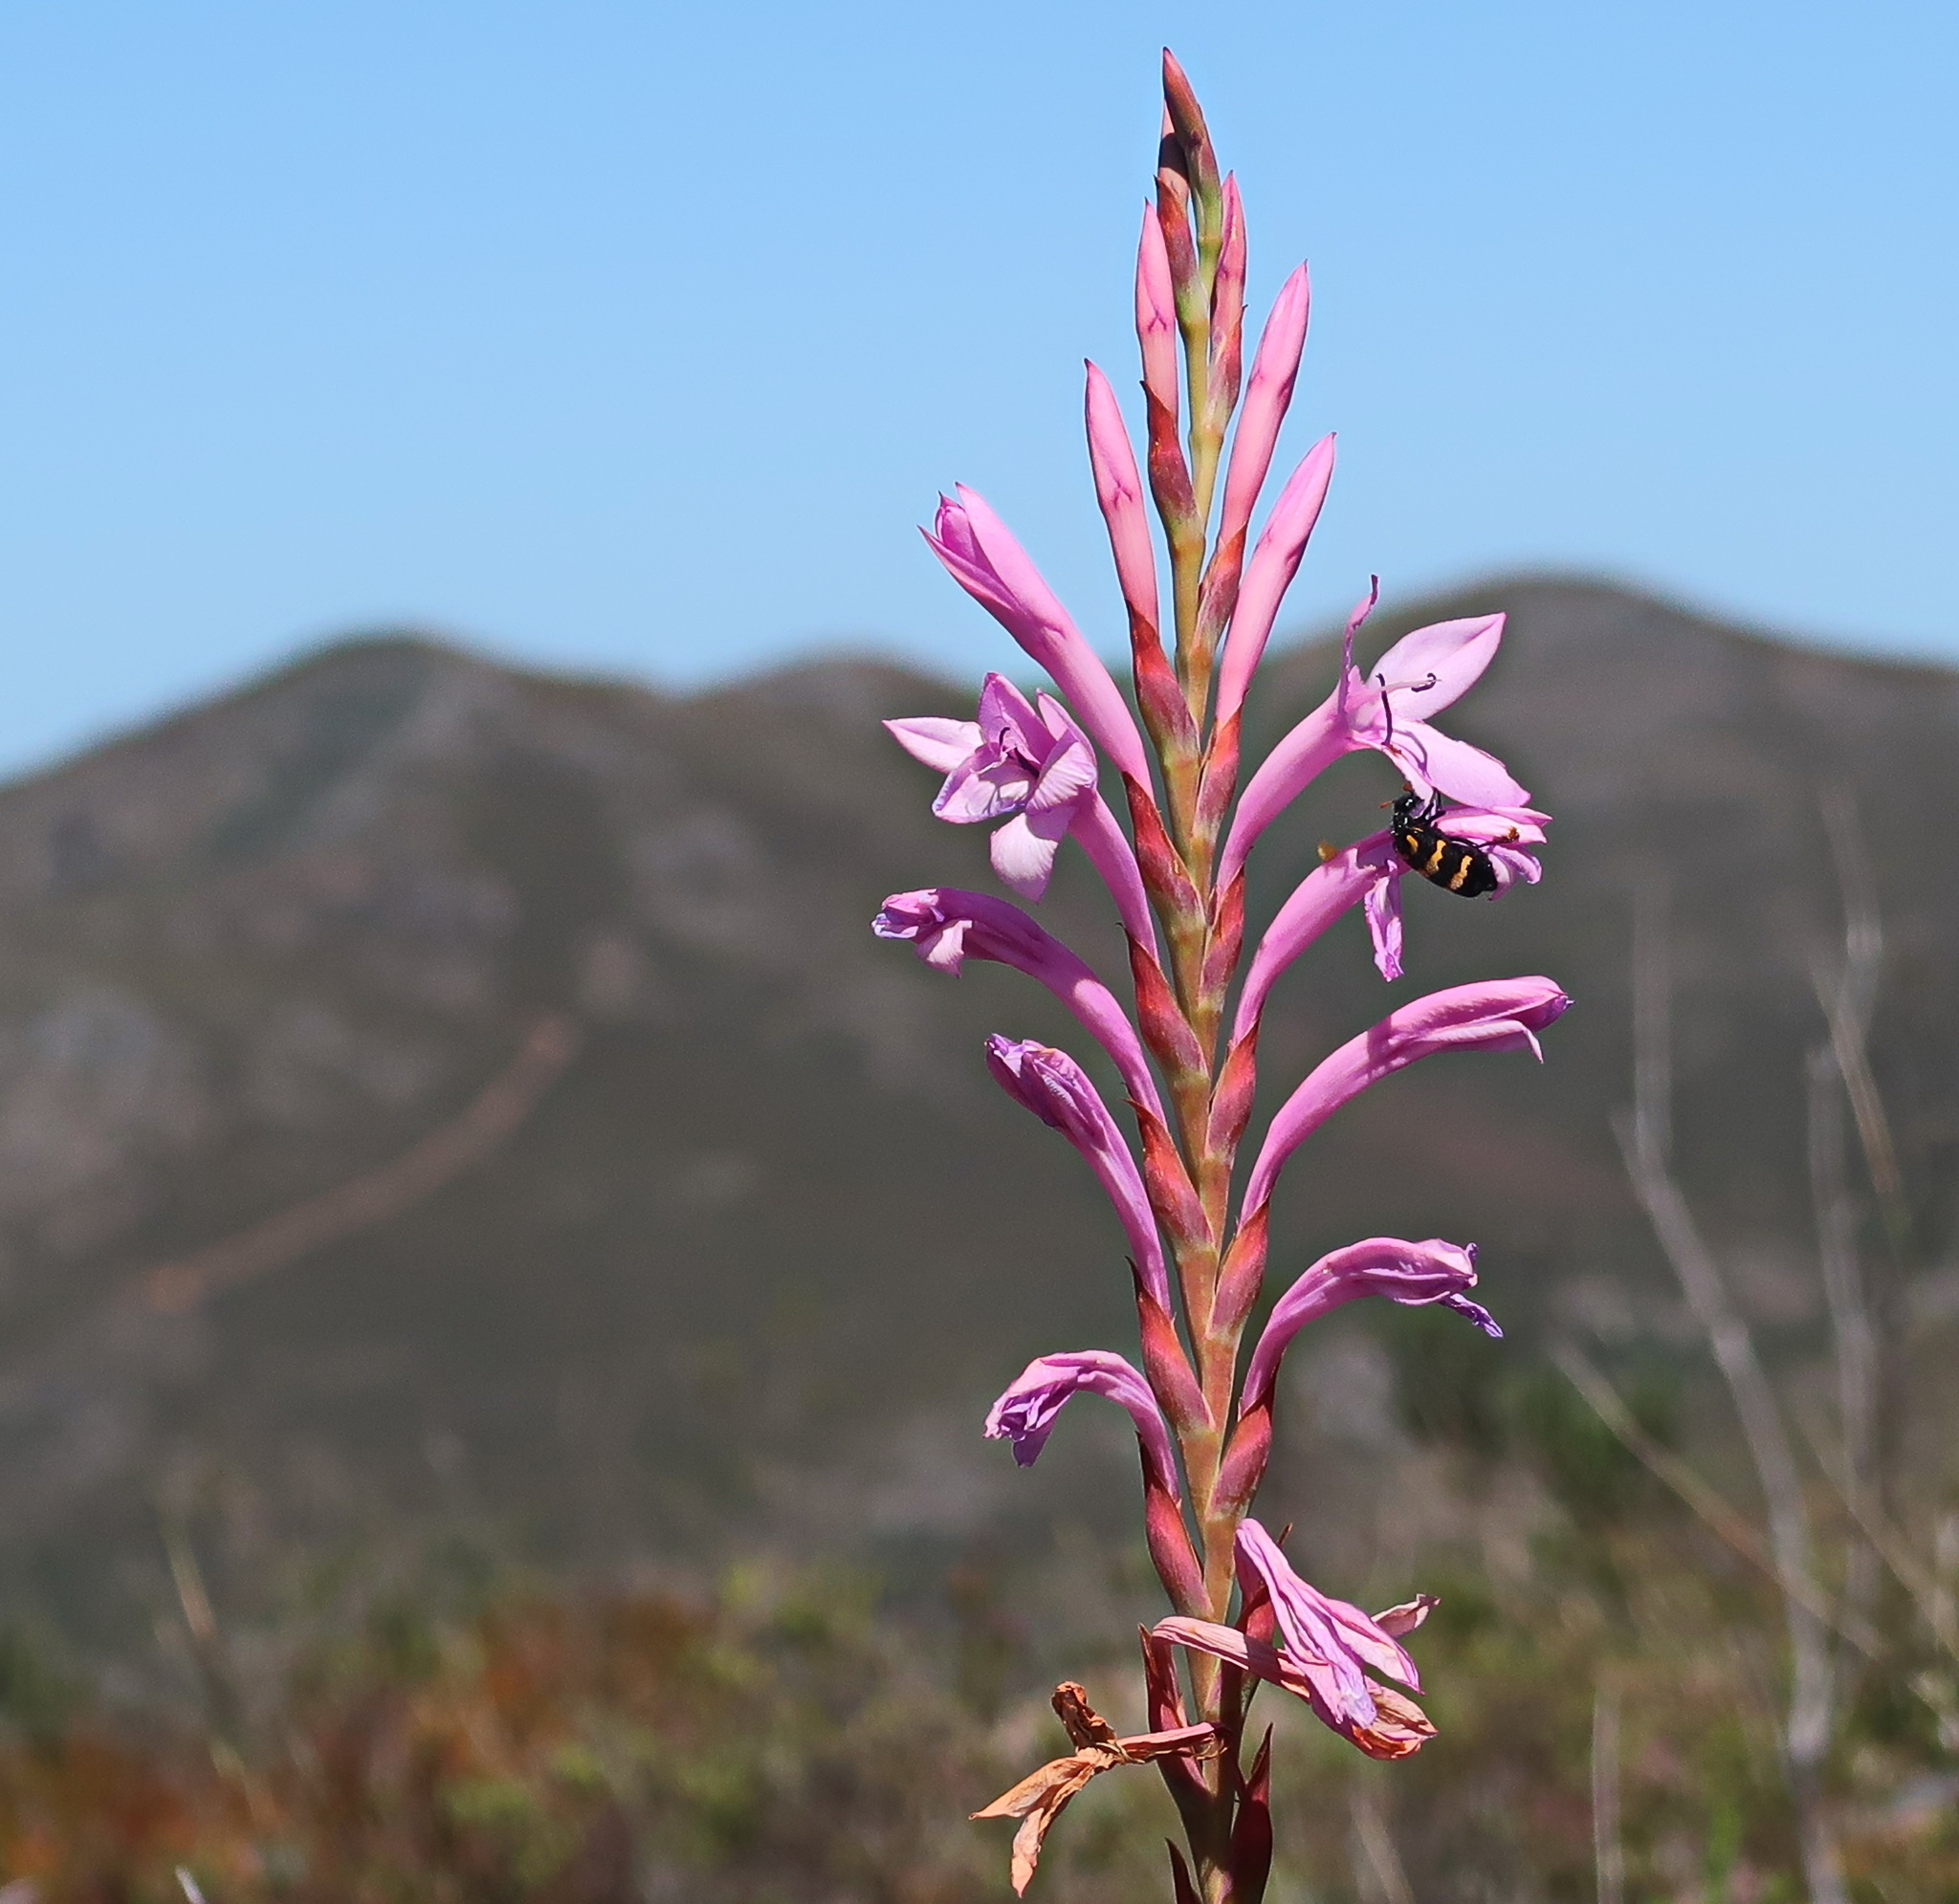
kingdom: Plantae
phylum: Tracheophyta
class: Liliopsida
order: Asparagales
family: Iridaceae
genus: Watsonia
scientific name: Watsonia knysnana
